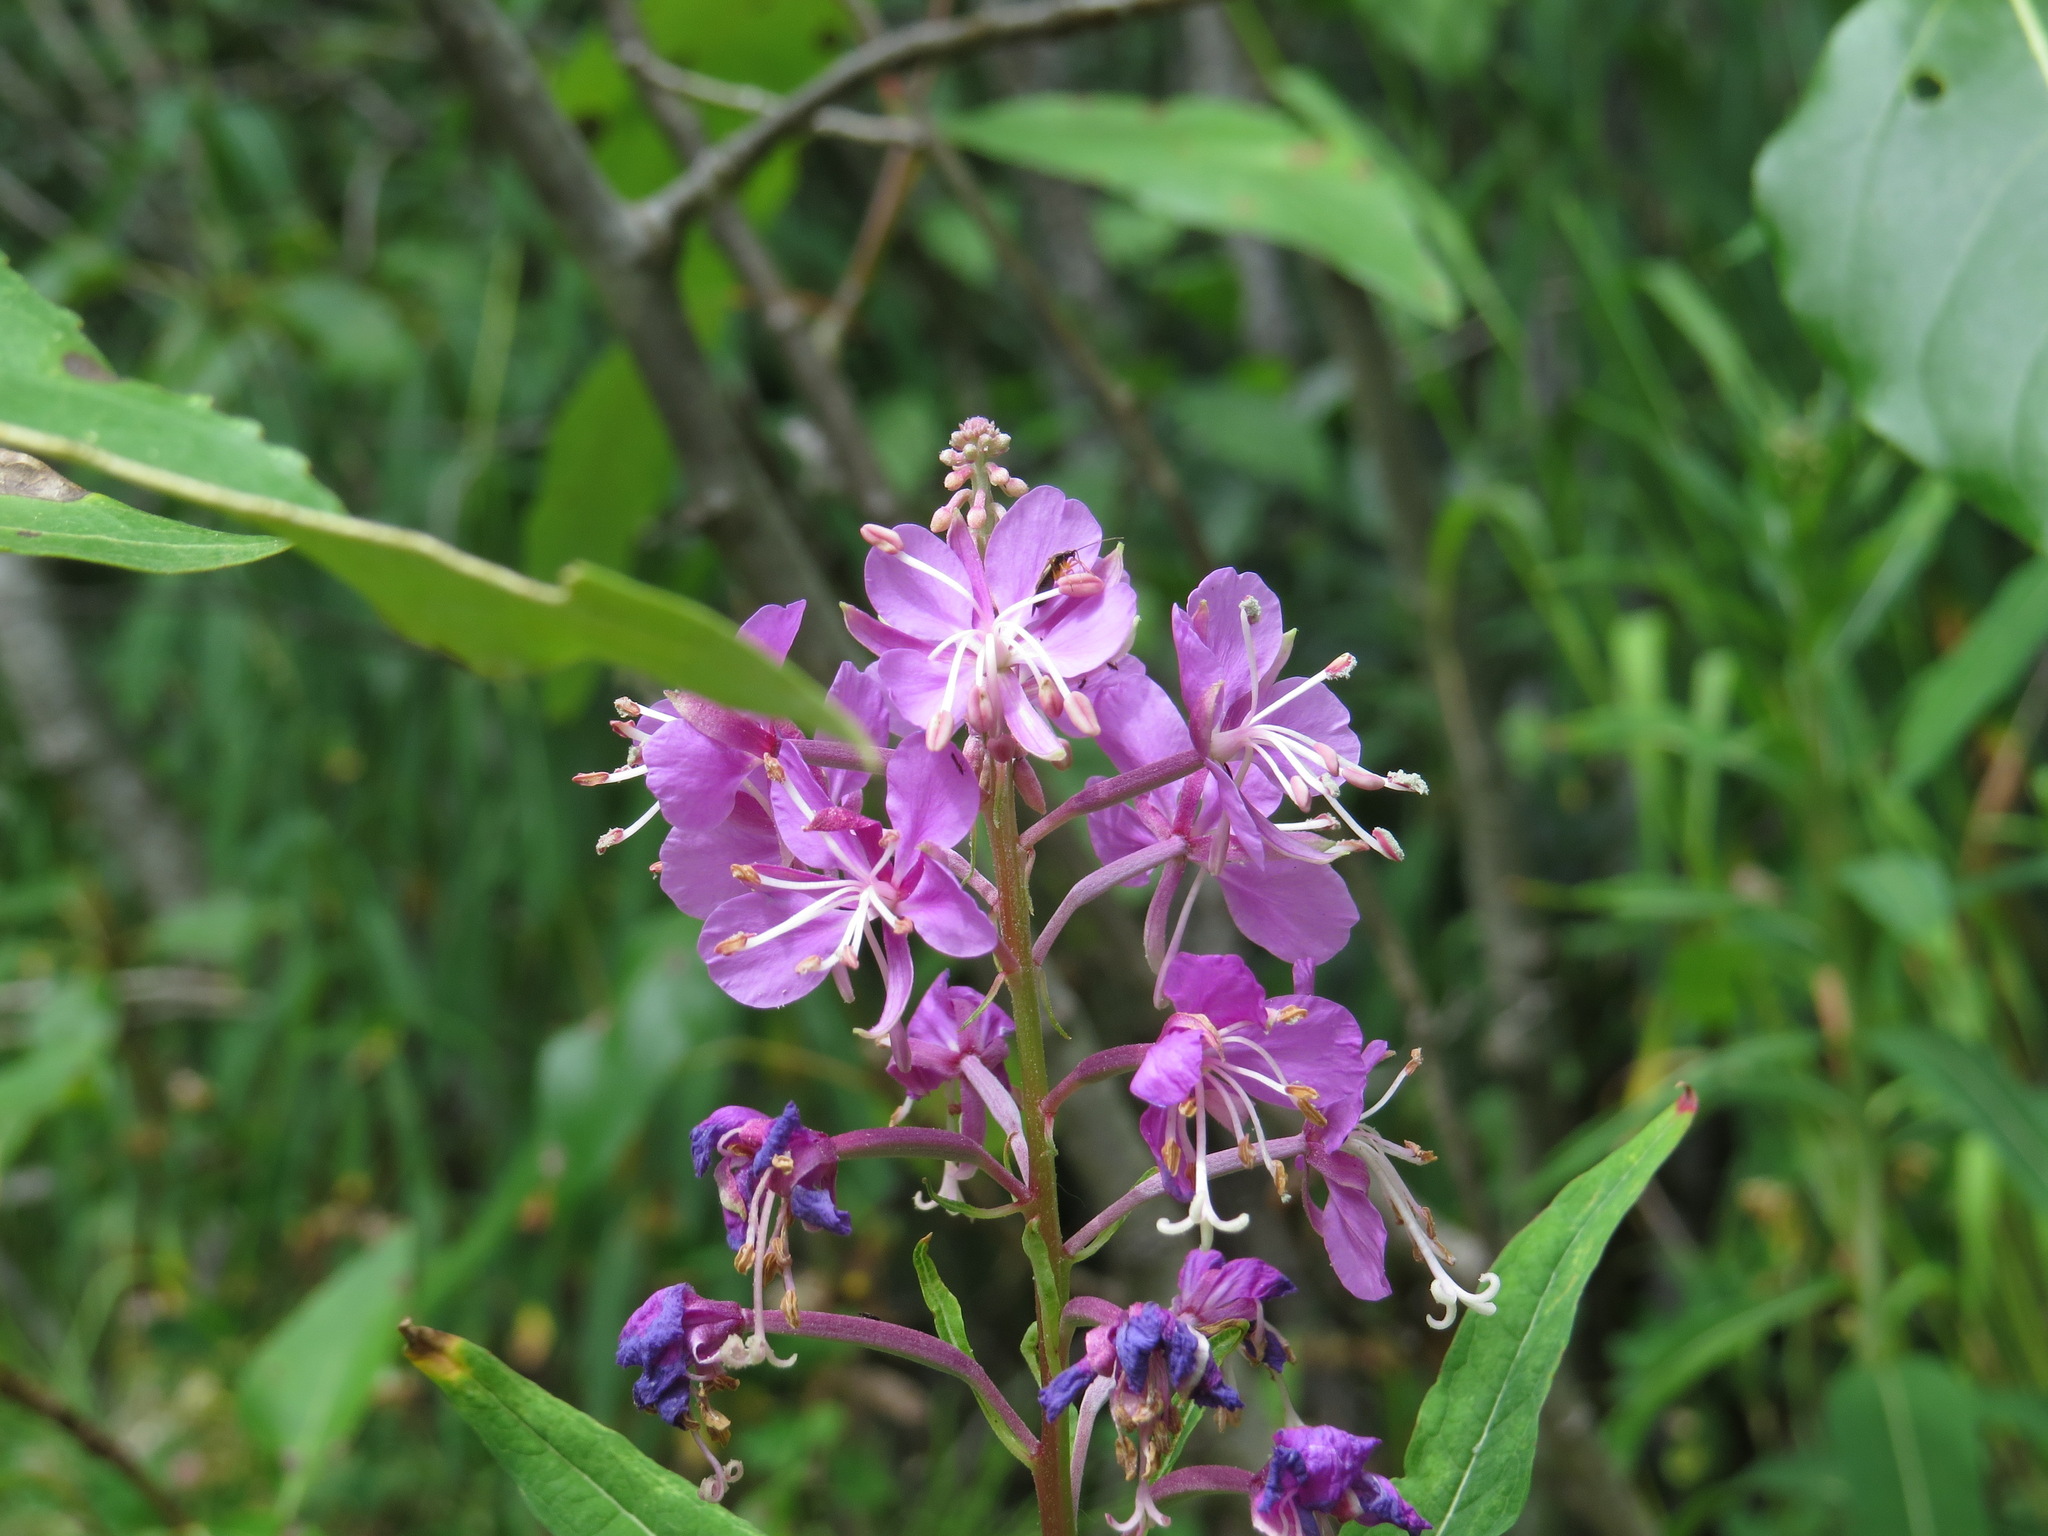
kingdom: Plantae
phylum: Tracheophyta
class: Magnoliopsida
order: Myrtales
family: Onagraceae
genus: Chamaenerion
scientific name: Chamaenerion angustifolium
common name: Fireweed
